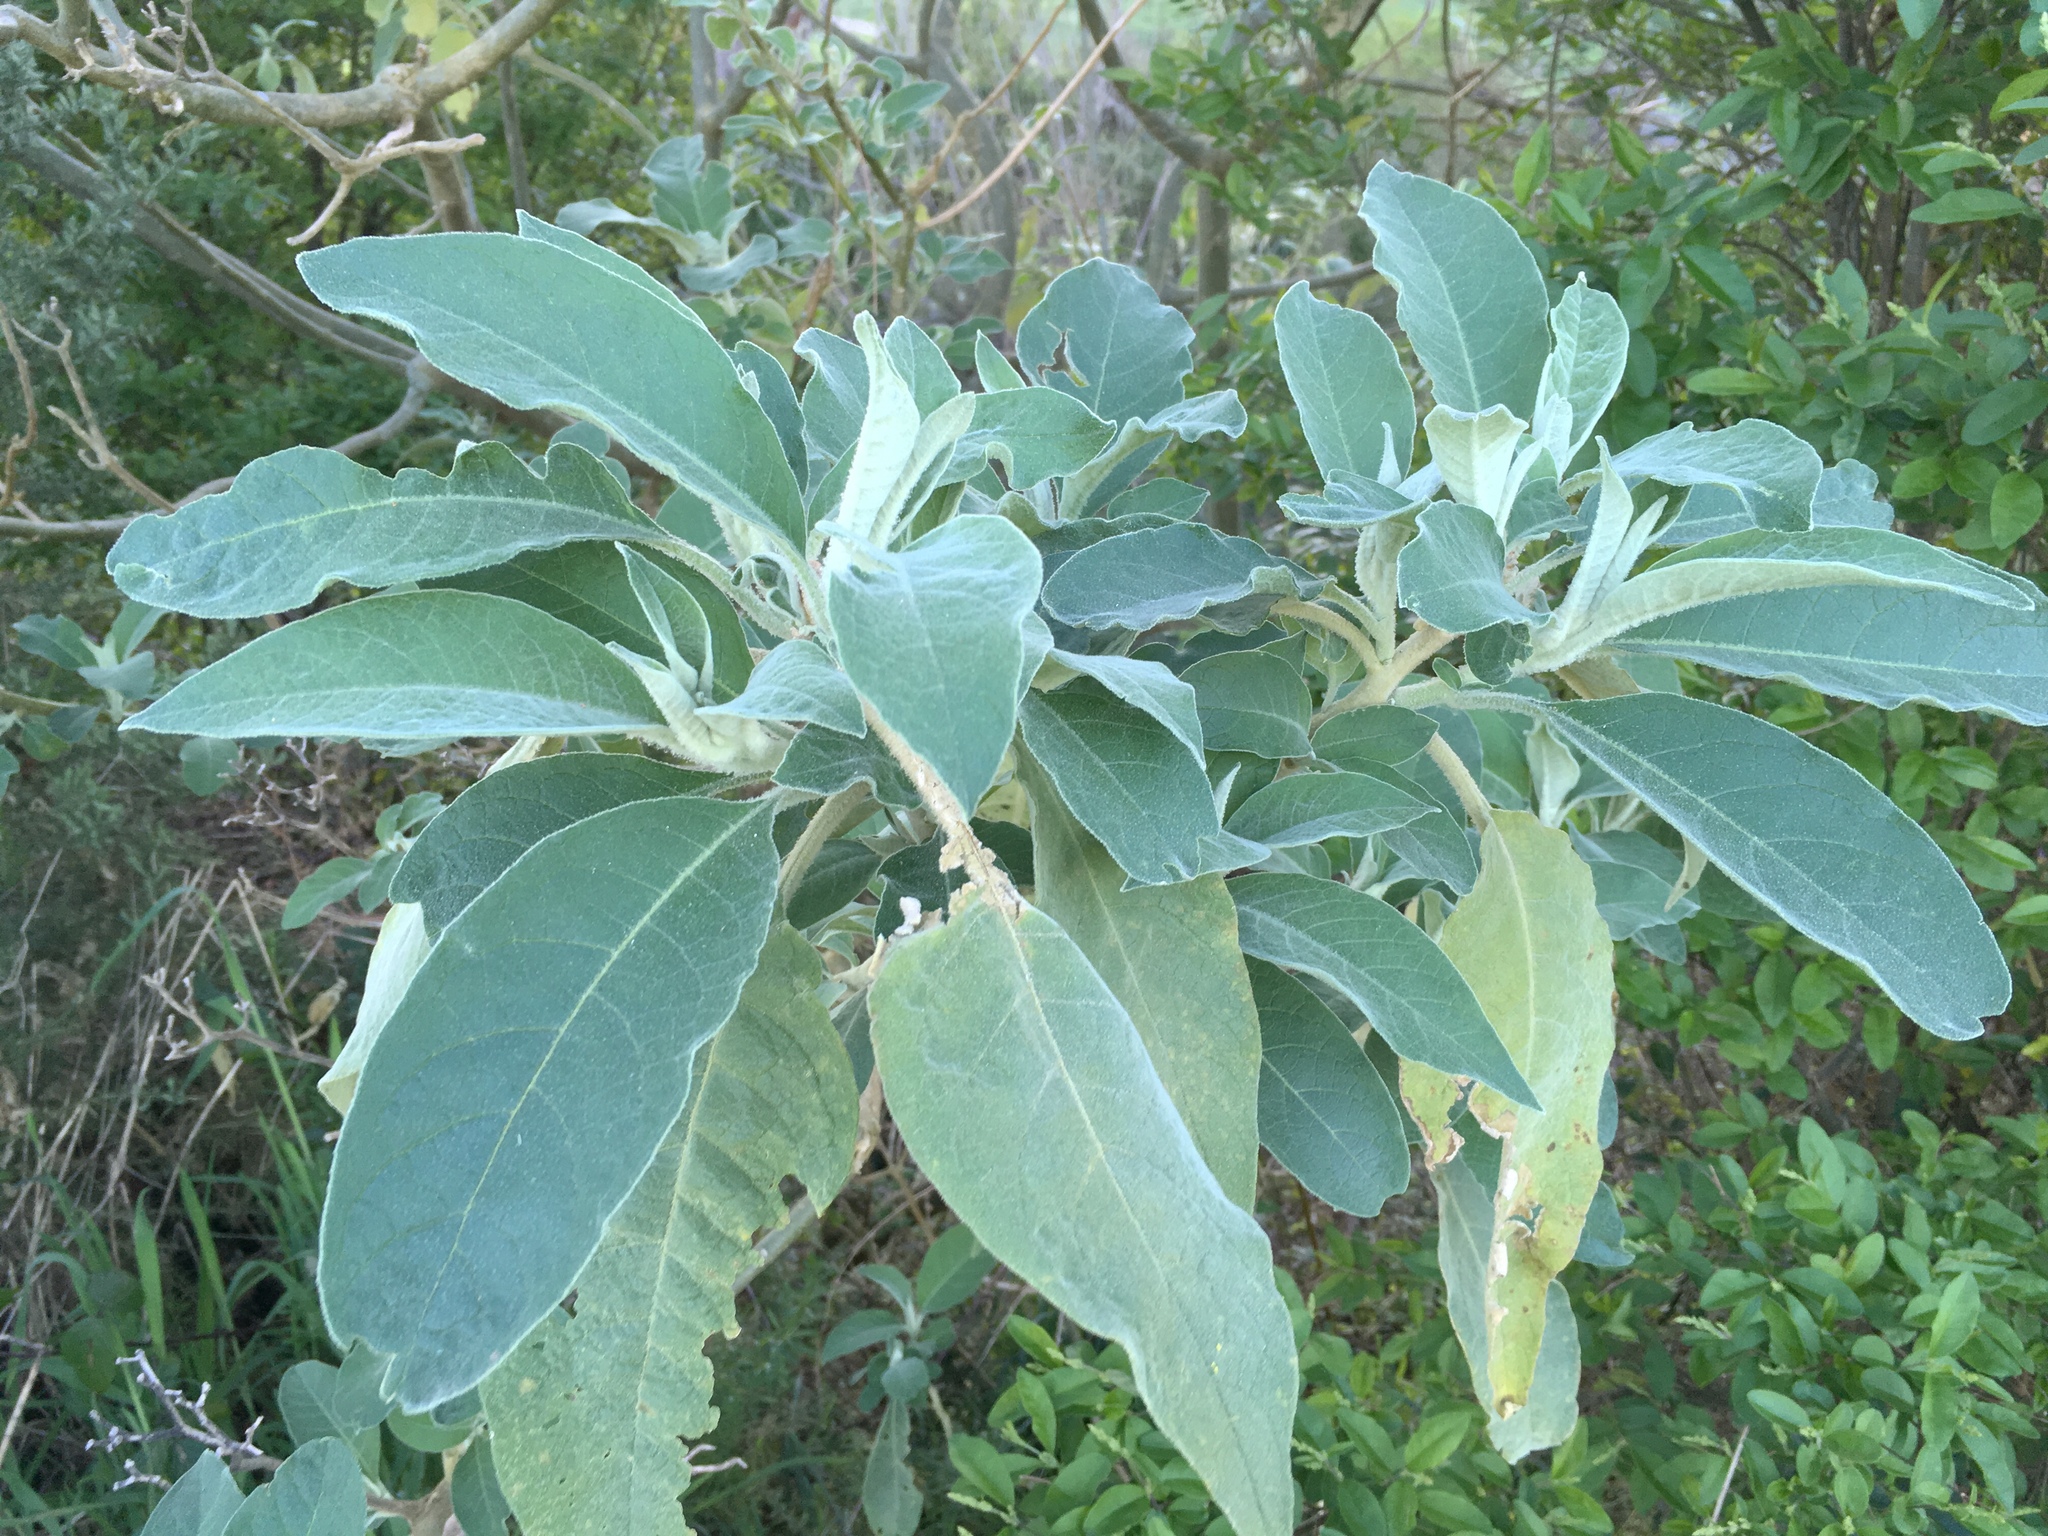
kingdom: Plantae
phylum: Tracheophyta
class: Magnoliopsida
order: Solanales
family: Solanaceae
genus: Solanum
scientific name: Solanum mauritianum
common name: Earleaf nightshade
